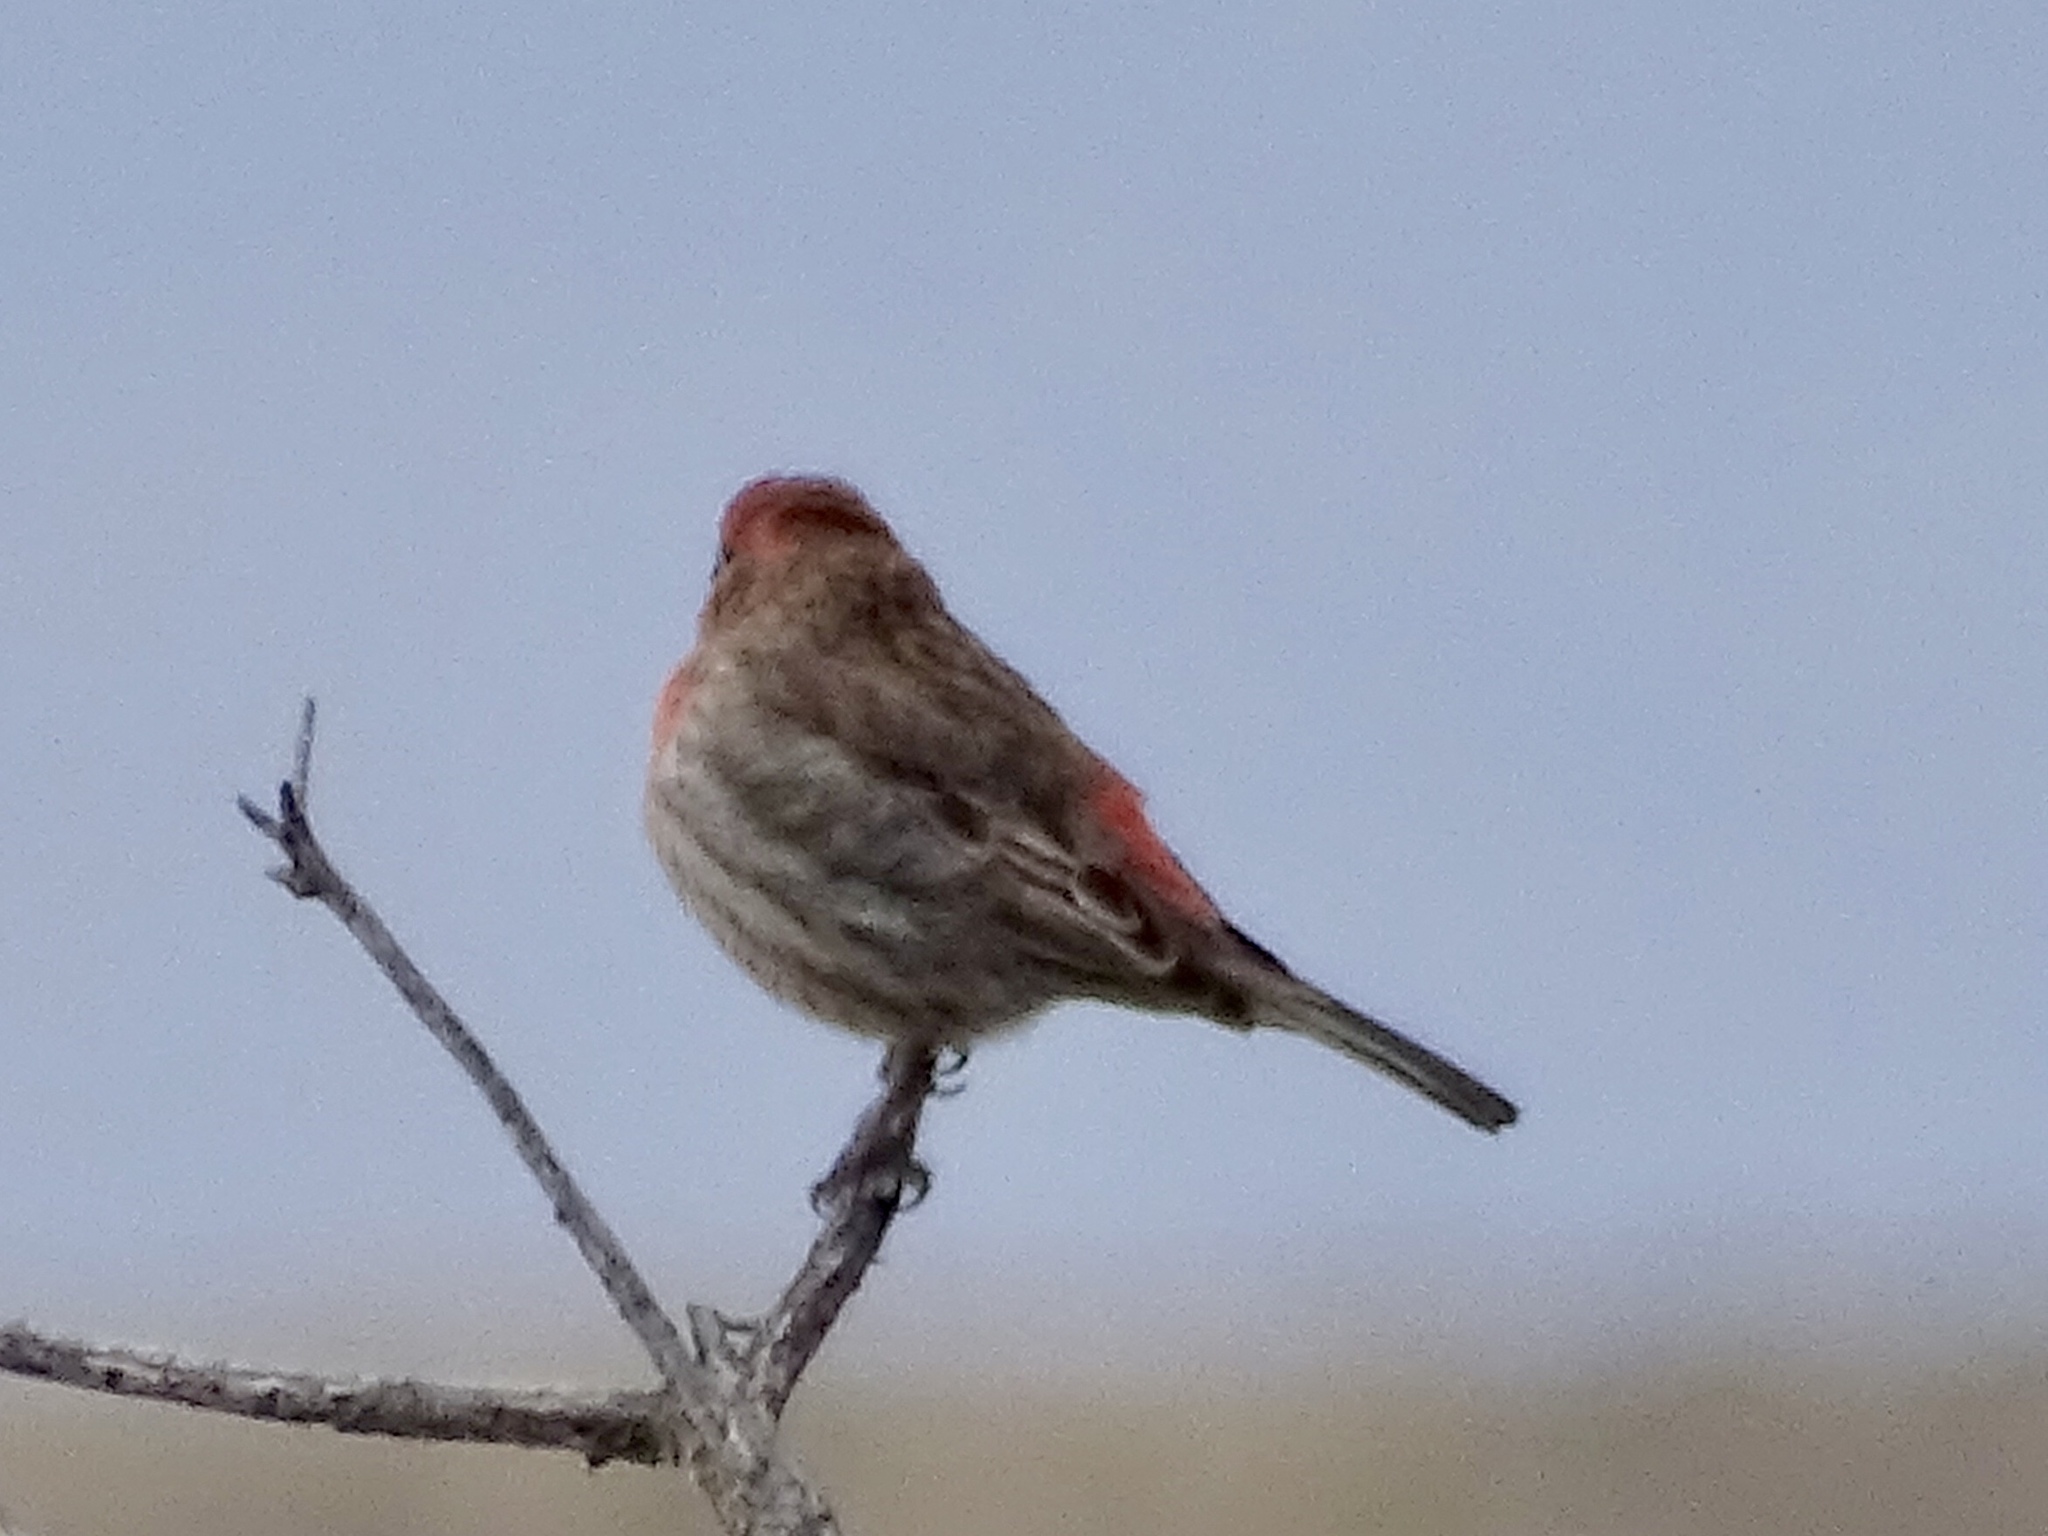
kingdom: Animalia
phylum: Chordata
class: Aves
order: Passeriformes
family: Fringillidae
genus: Haemorhous
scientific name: Haemorhous mexicanus
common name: House finch
